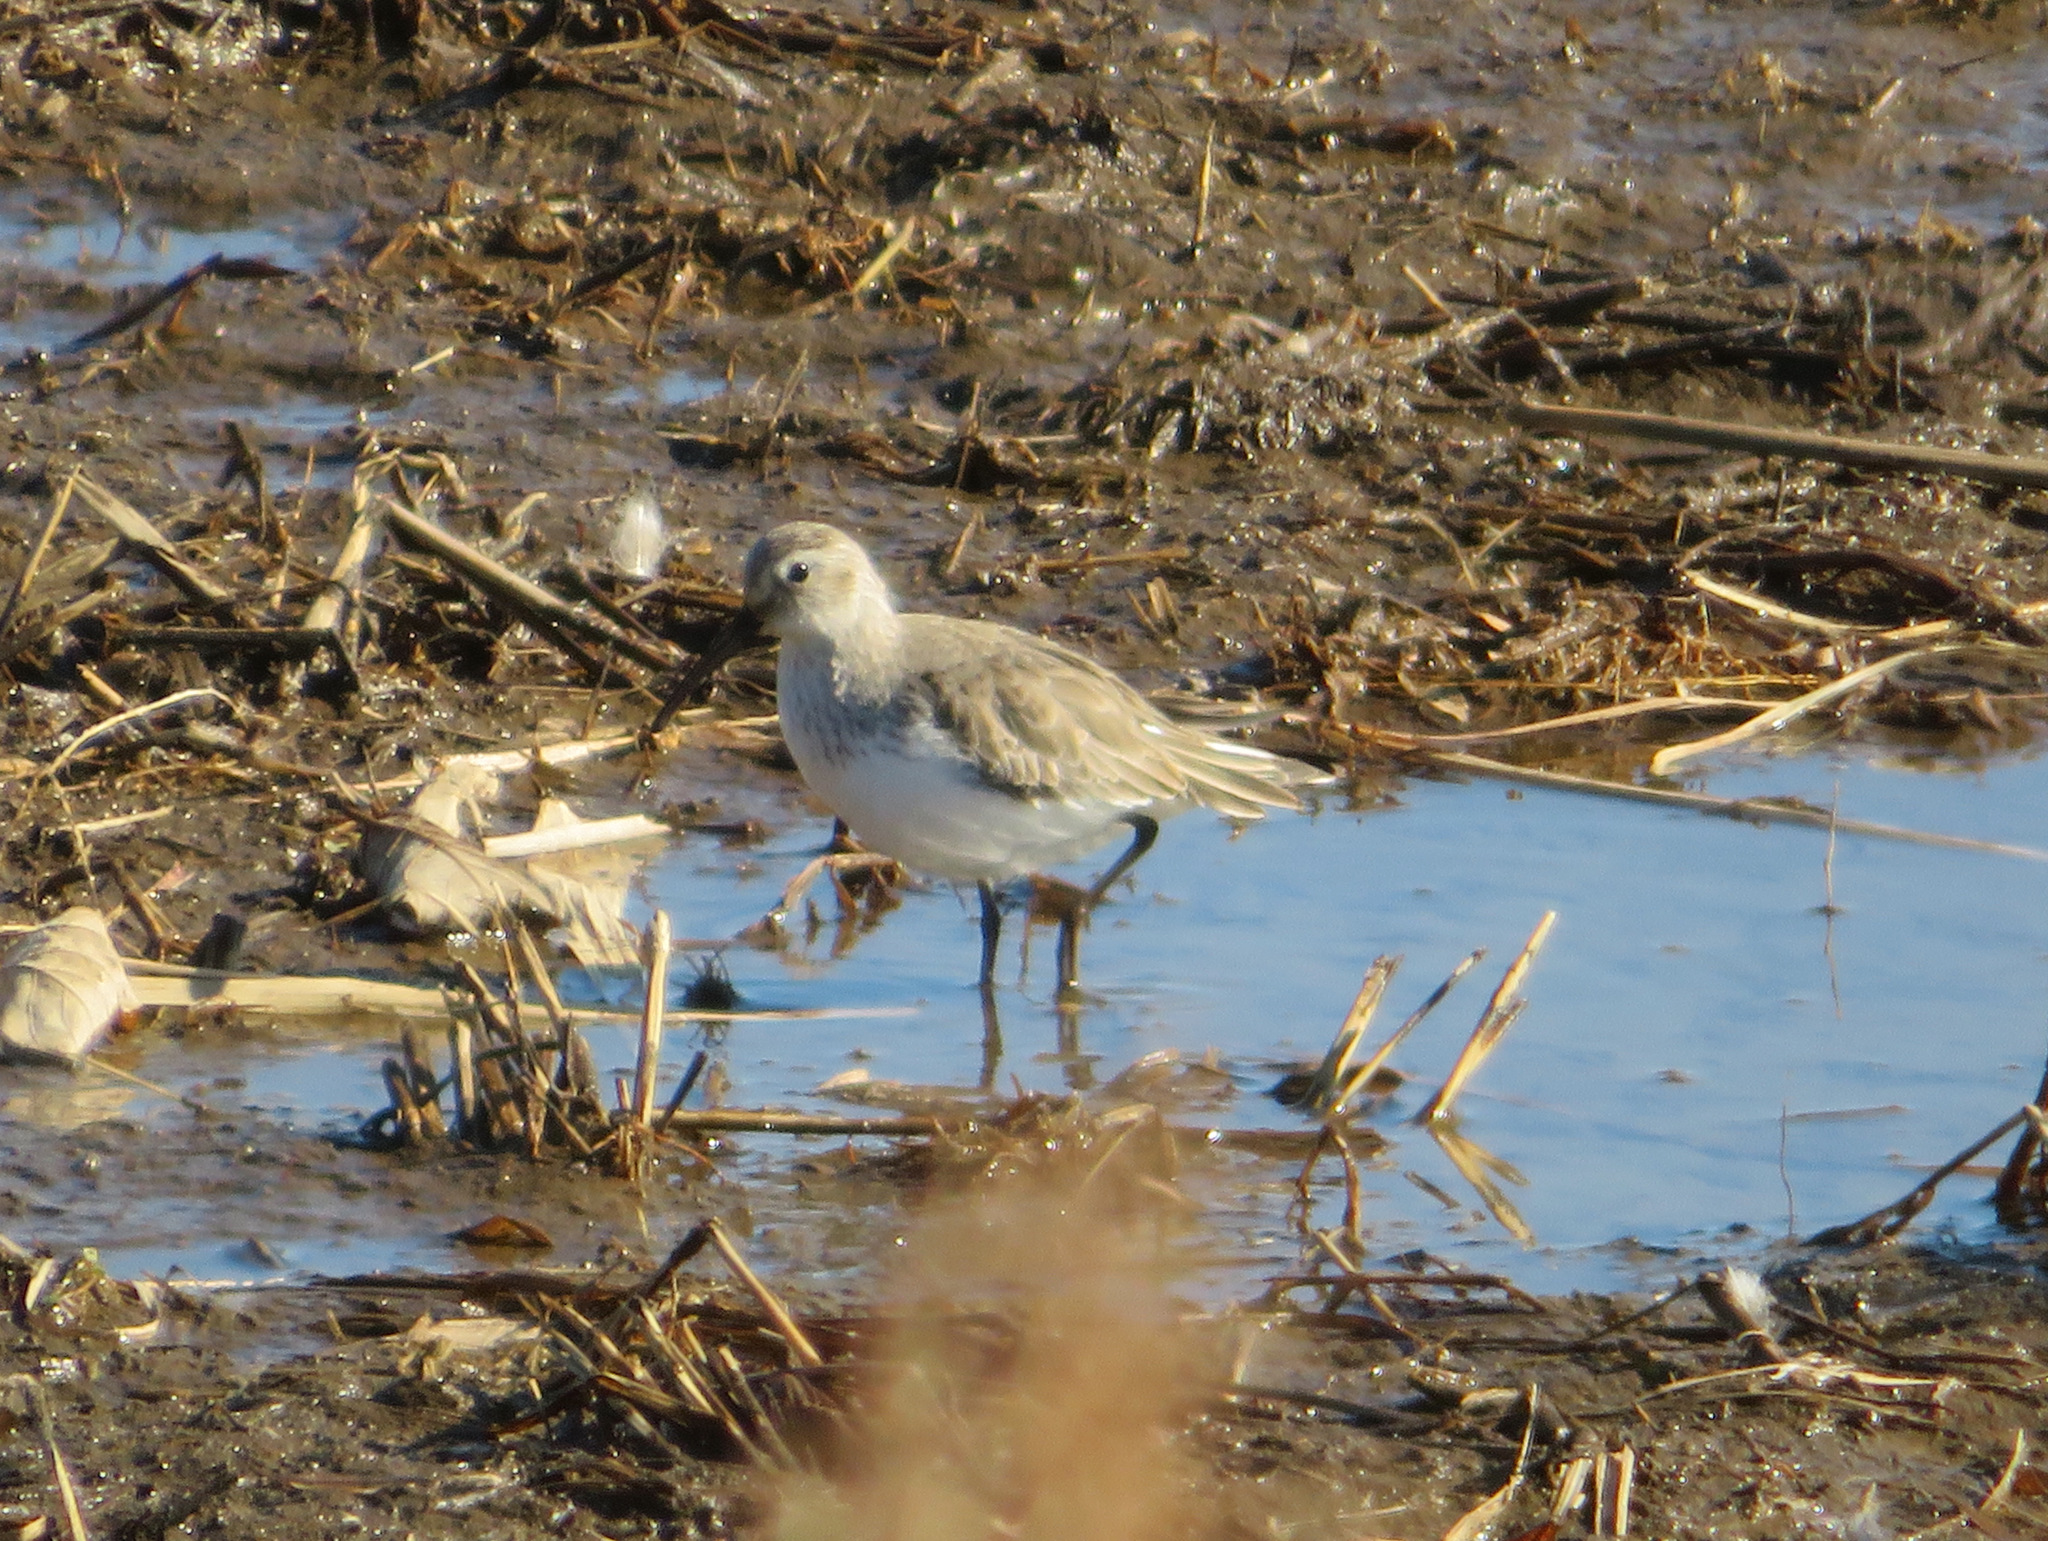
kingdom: Animalia
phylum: Chordata
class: Aves
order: Charadriiformes
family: Scolopacidae
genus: Calidris
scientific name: Calidris alpina
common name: Dunlin
